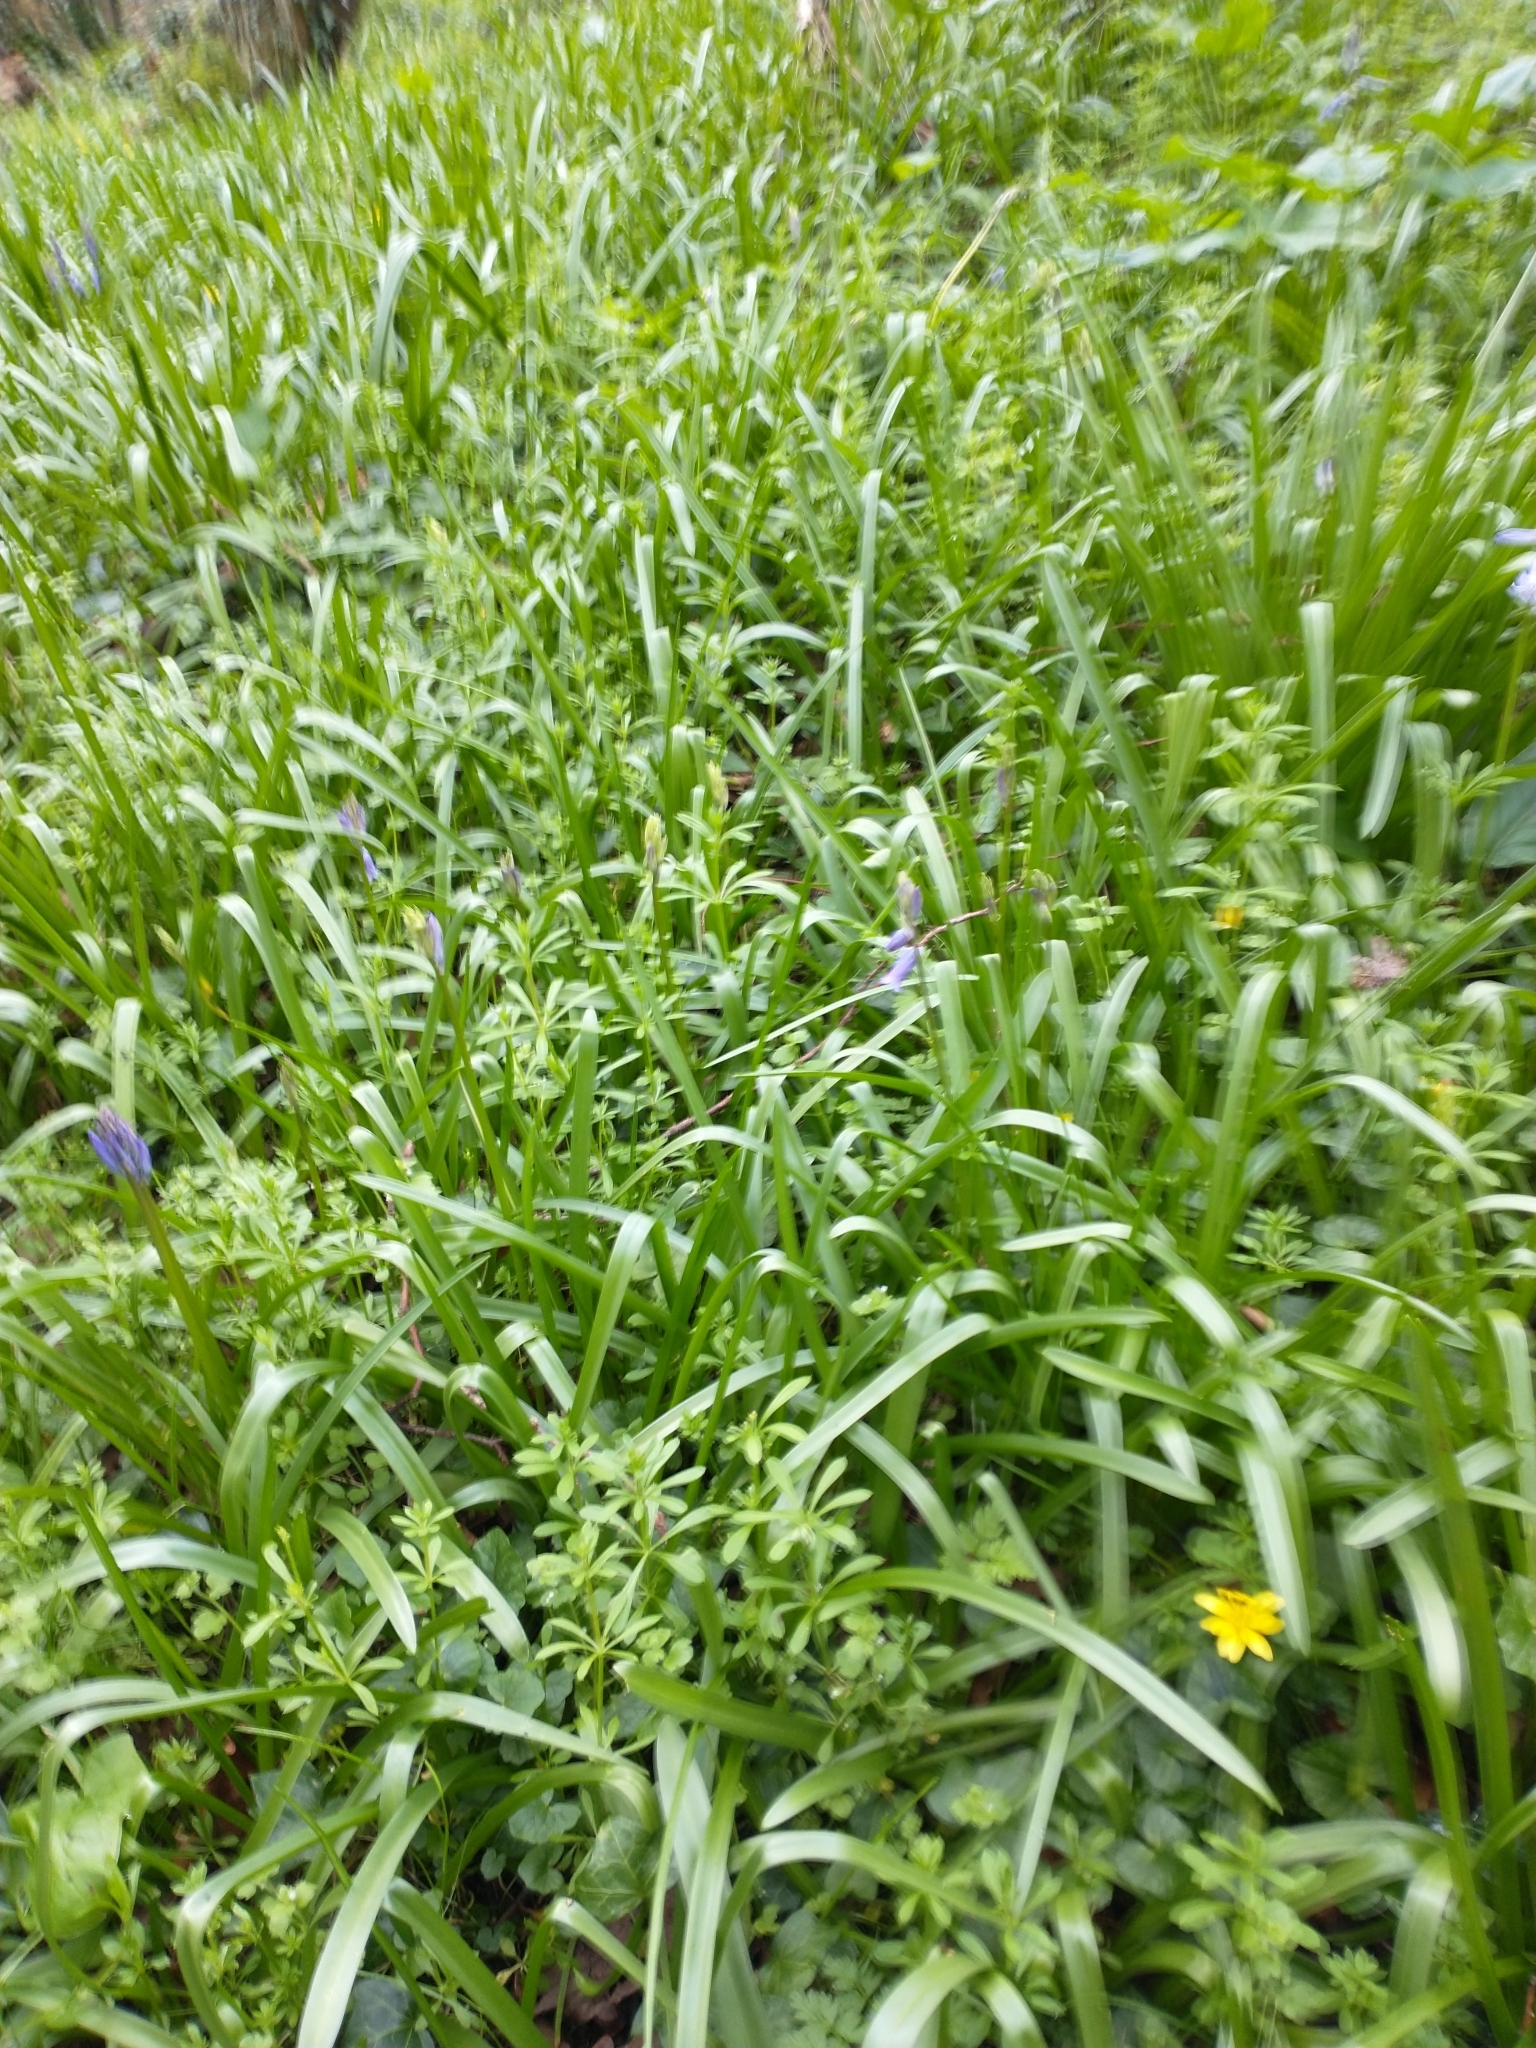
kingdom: Plantae
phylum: Tracheophyta
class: Liliopsida
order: Asparagales
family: Asparagaceae
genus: Hyacinthoides
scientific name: Hyacinthoides non-scripta
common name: Bluebell
